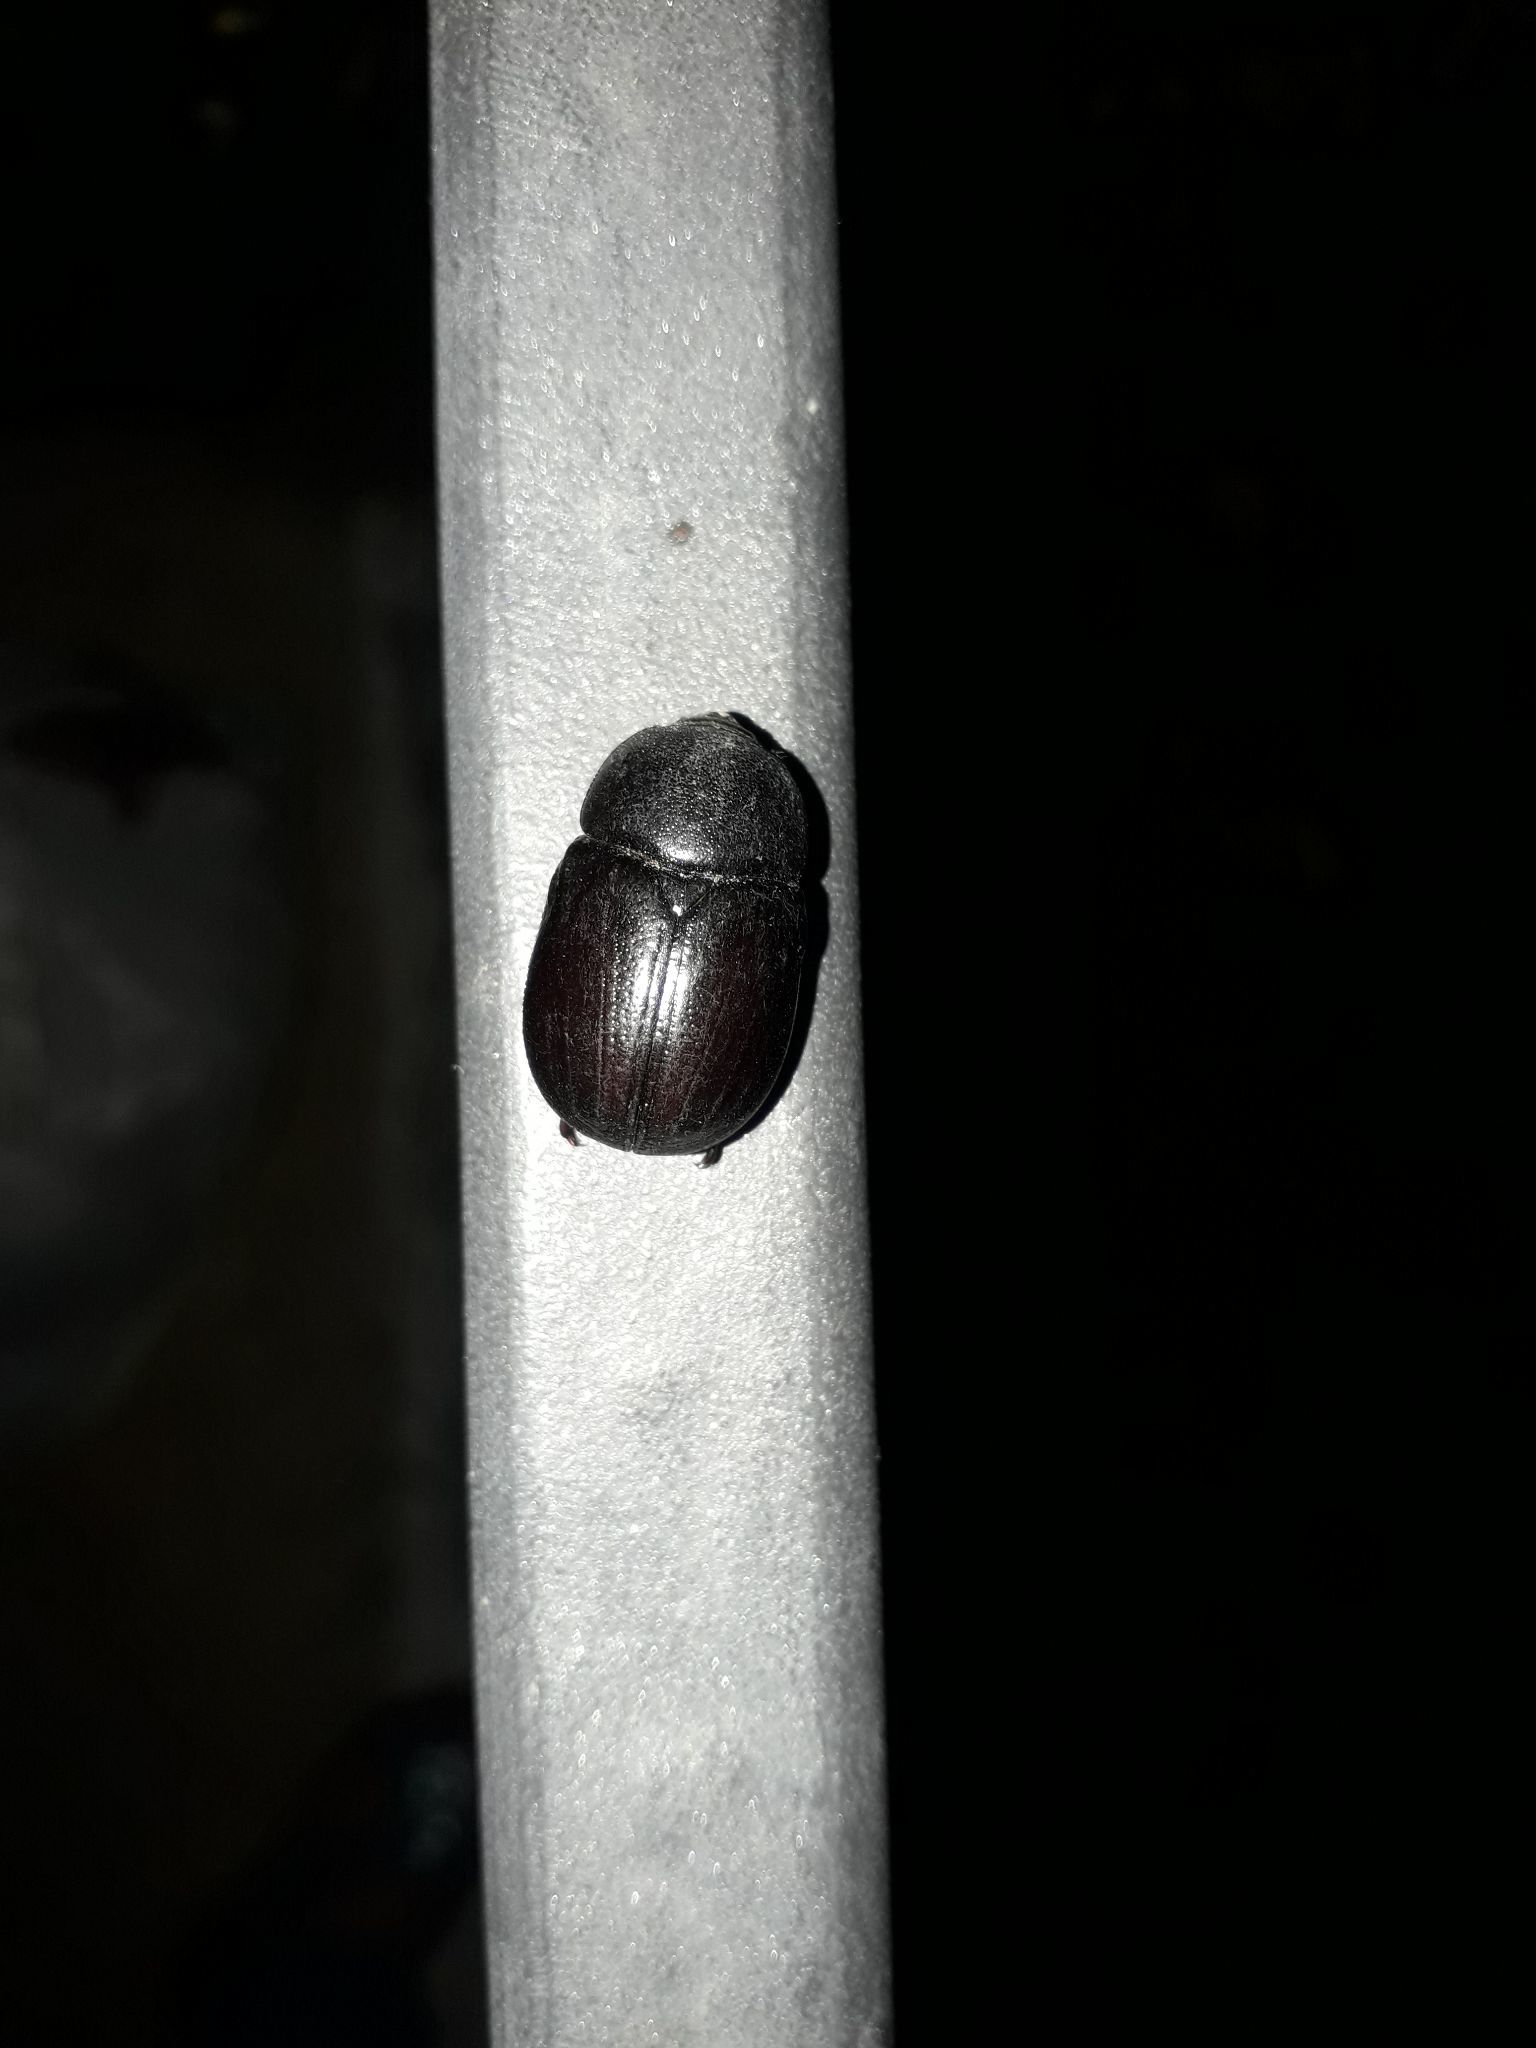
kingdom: Animalia
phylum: Arthropoda
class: Insecta
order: Coleoptera
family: Scarabaeidae
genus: Pentodon
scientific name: Pentodon bidens
